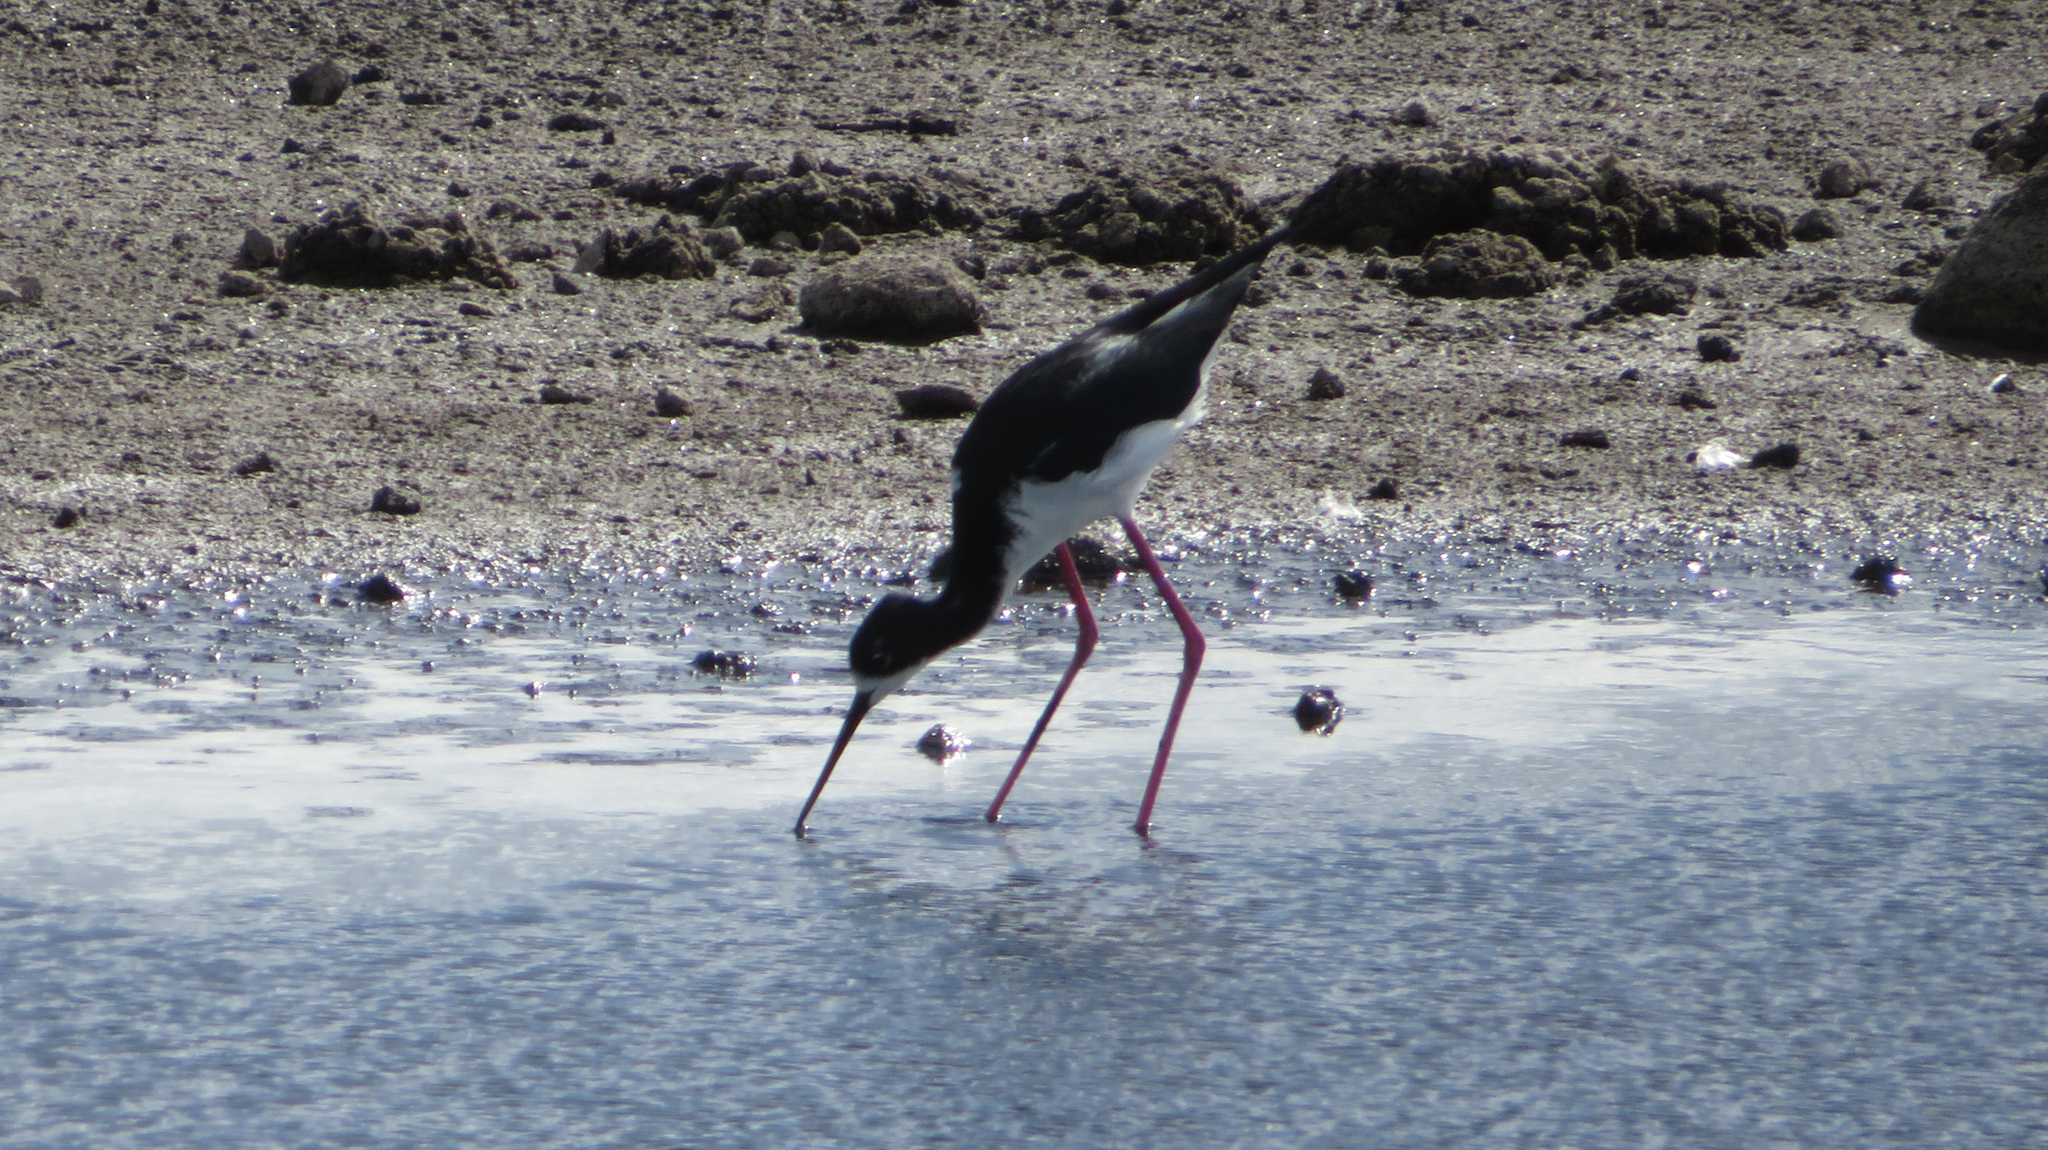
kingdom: Animalia
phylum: Chordata
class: Aves
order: Charadriiformes
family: Recurvirostridae
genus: Himantopus
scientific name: Himantopus mexicanus
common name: Black-necked stilt
